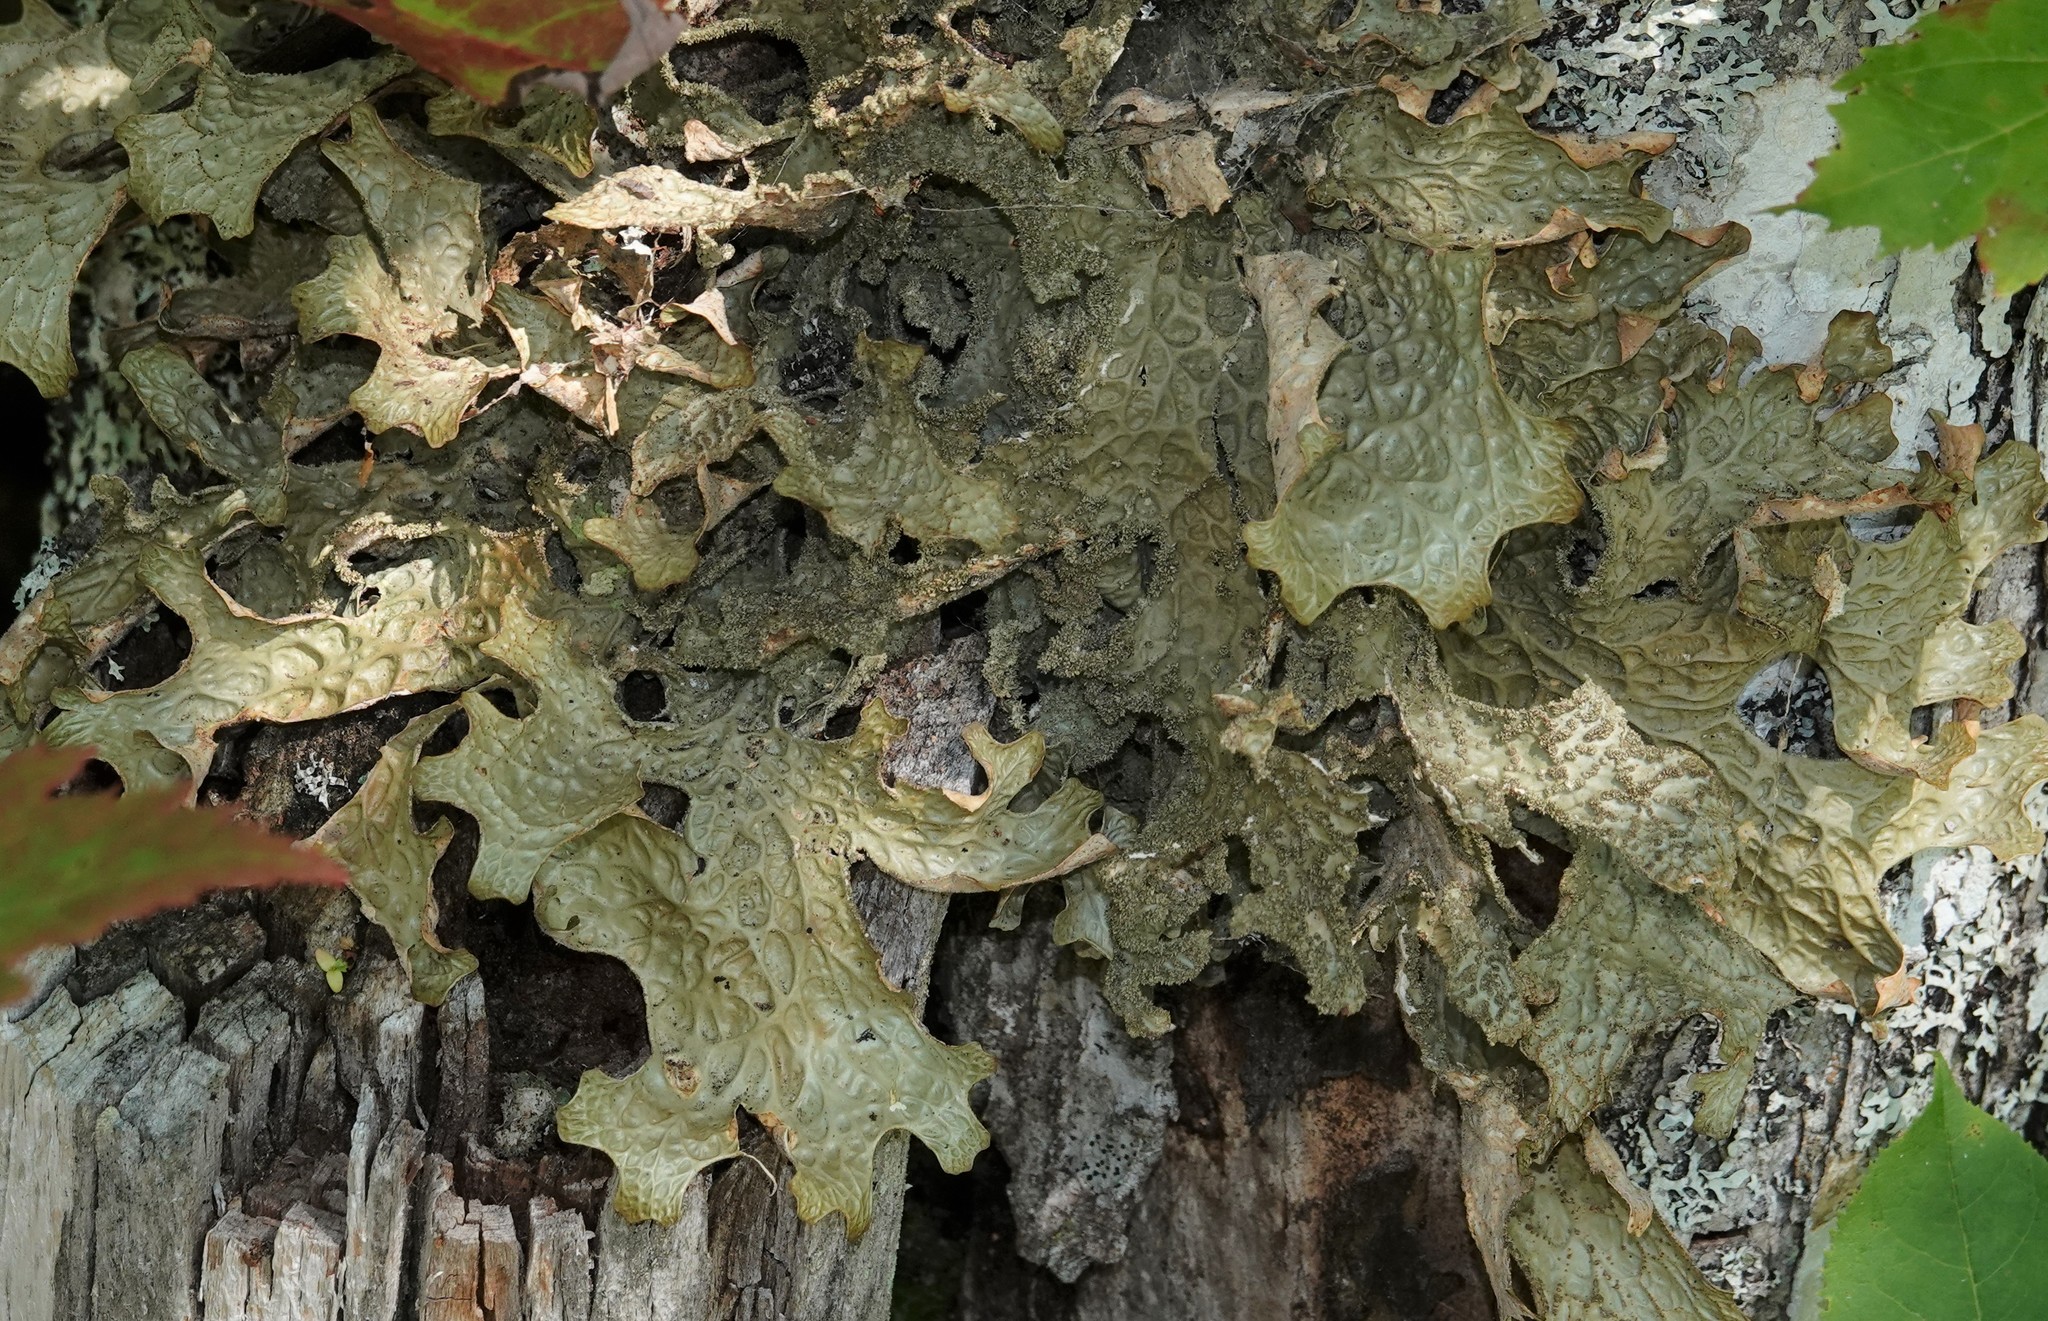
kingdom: Fungi
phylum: Ascomycota
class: Lecanoromycetes
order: Peltigerales
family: Lobariaceae
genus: Lobaria
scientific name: Lobaria pulmonaria
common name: Lungwort
